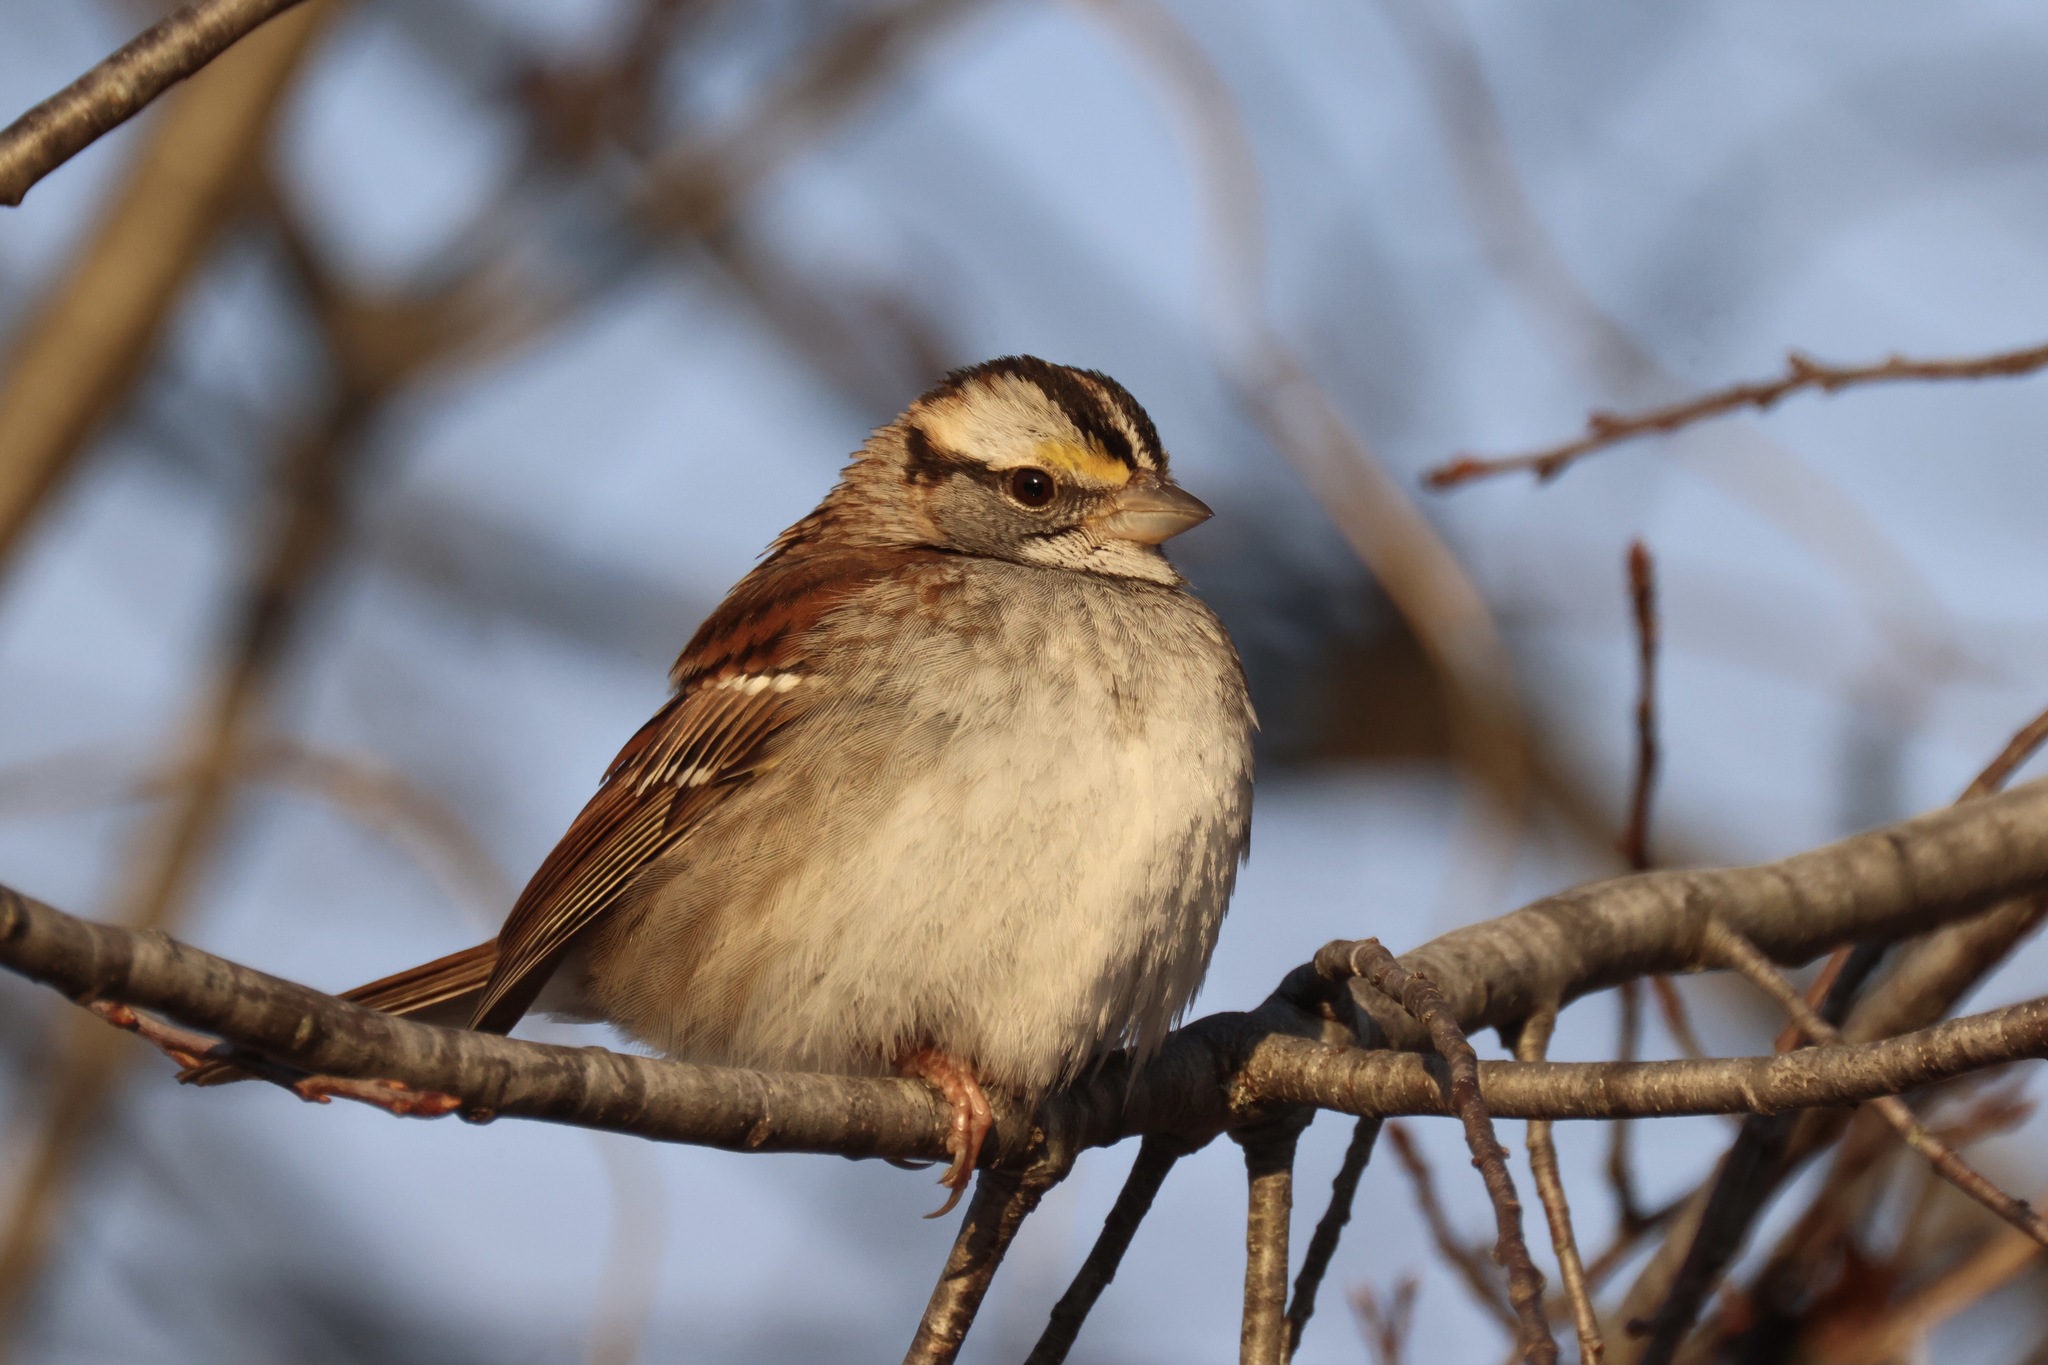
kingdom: Animalia
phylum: Chordata
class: Aves
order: Passeriformes
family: Passerellidae
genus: Zonotrichia
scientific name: Zonotrichia albicollis
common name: White-throated sparrow
